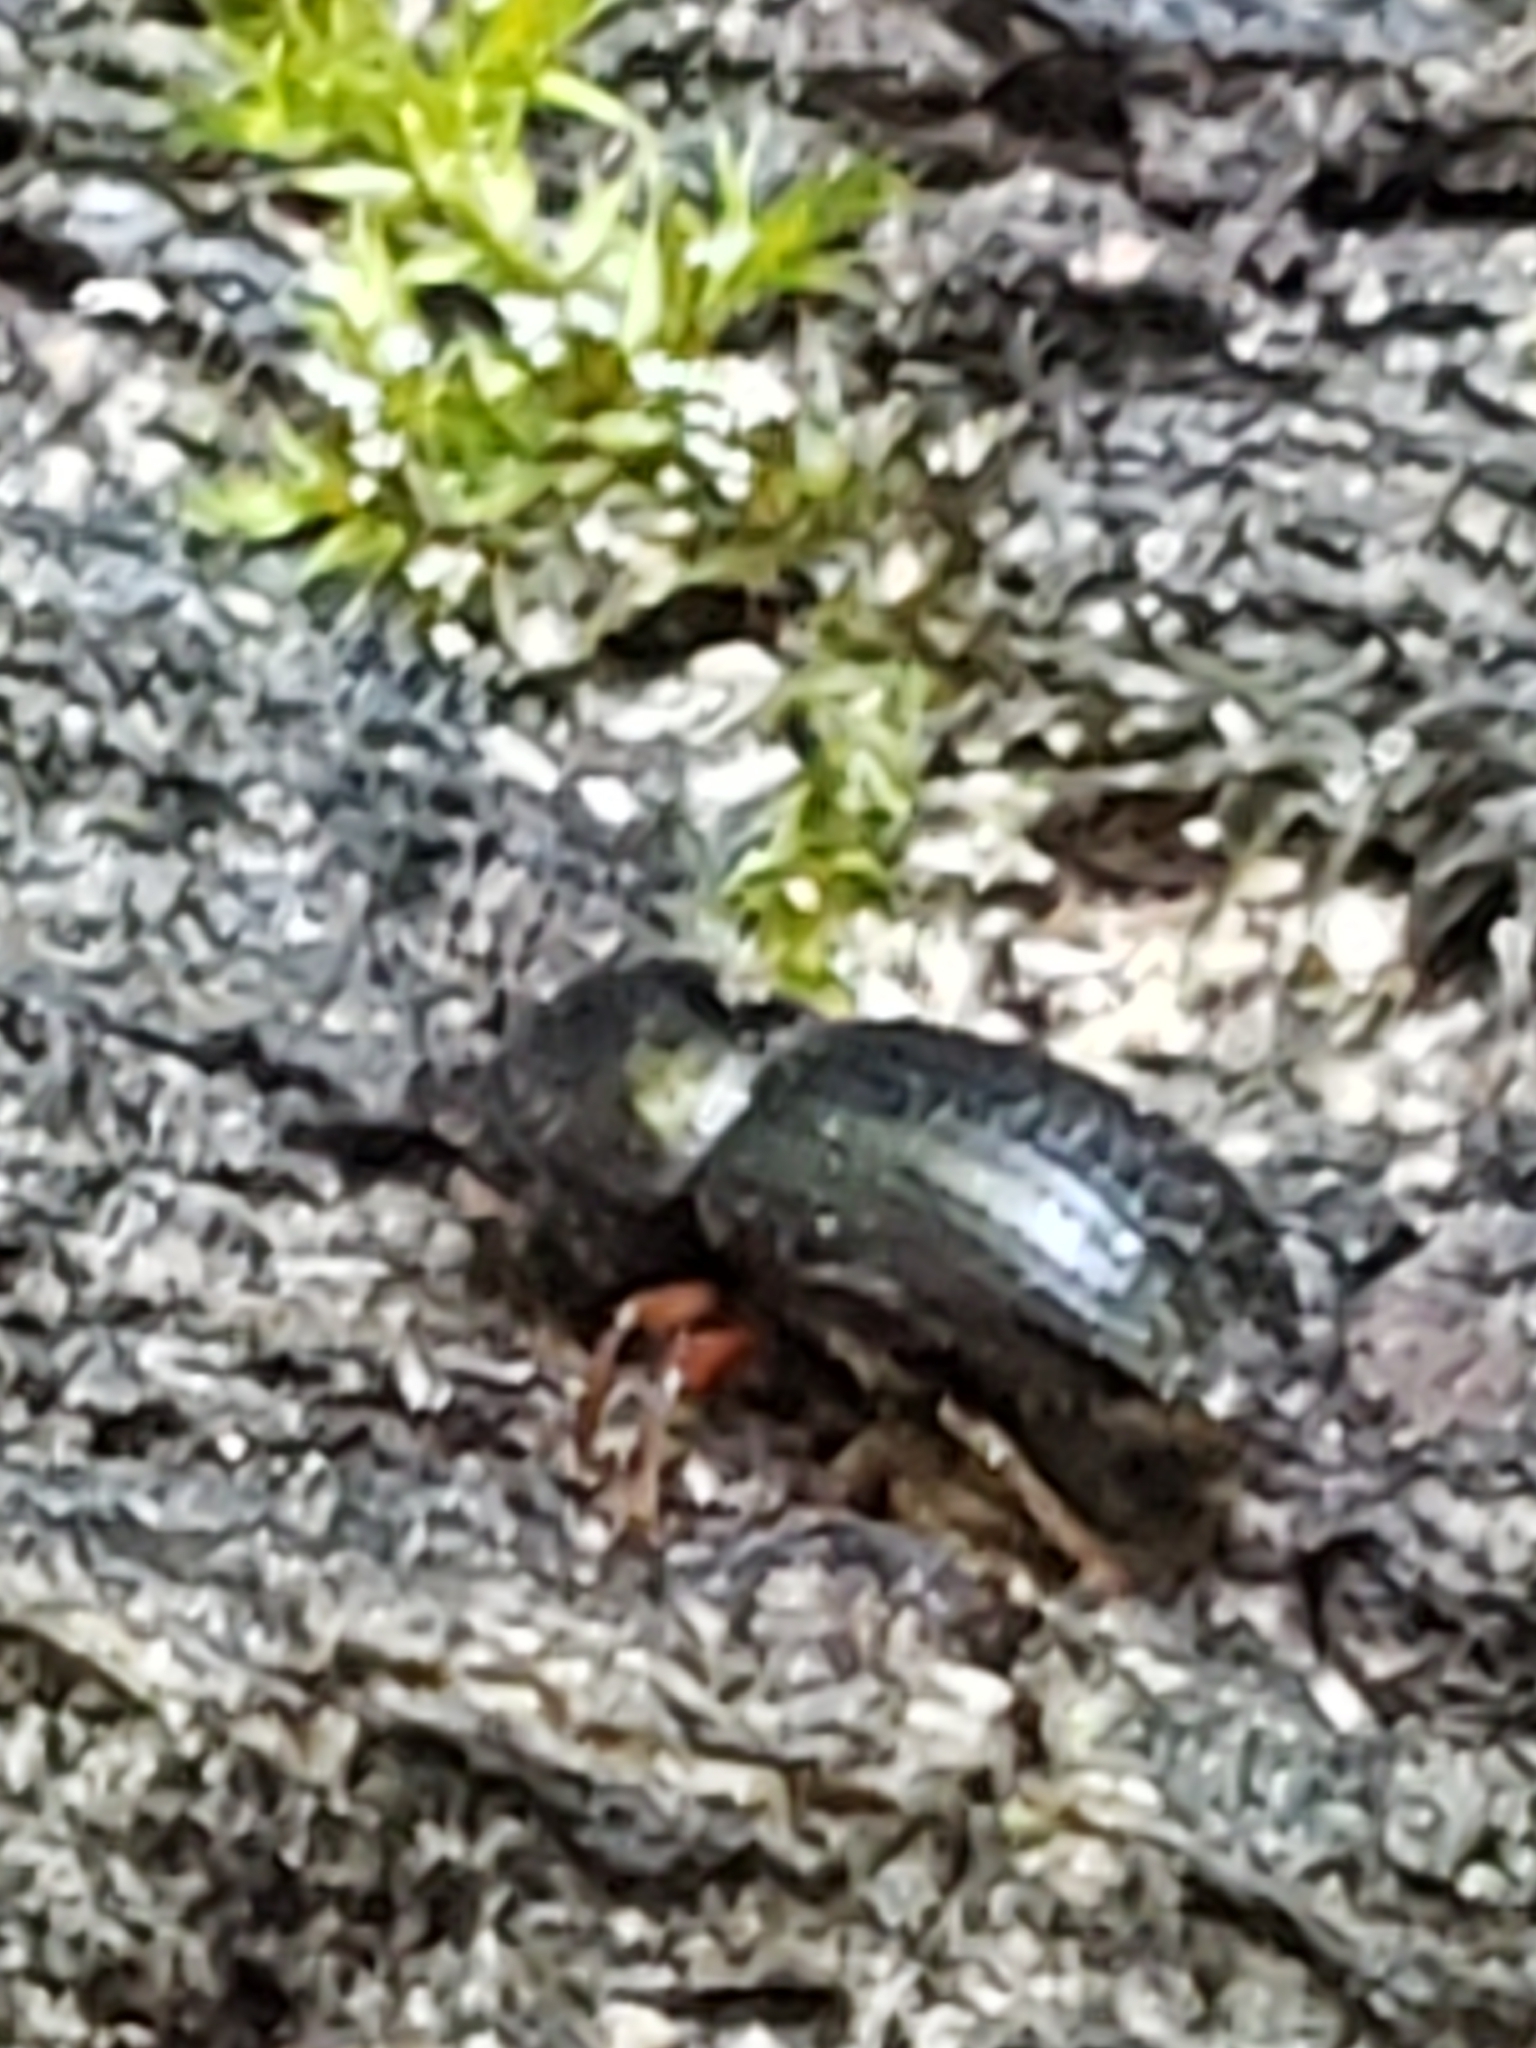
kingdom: Animalia
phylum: Arthropoda
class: Insecta
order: Coleoptera
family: Curculionidae
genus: Euwallacea
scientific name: Euwallacea validus
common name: Bark beetle
